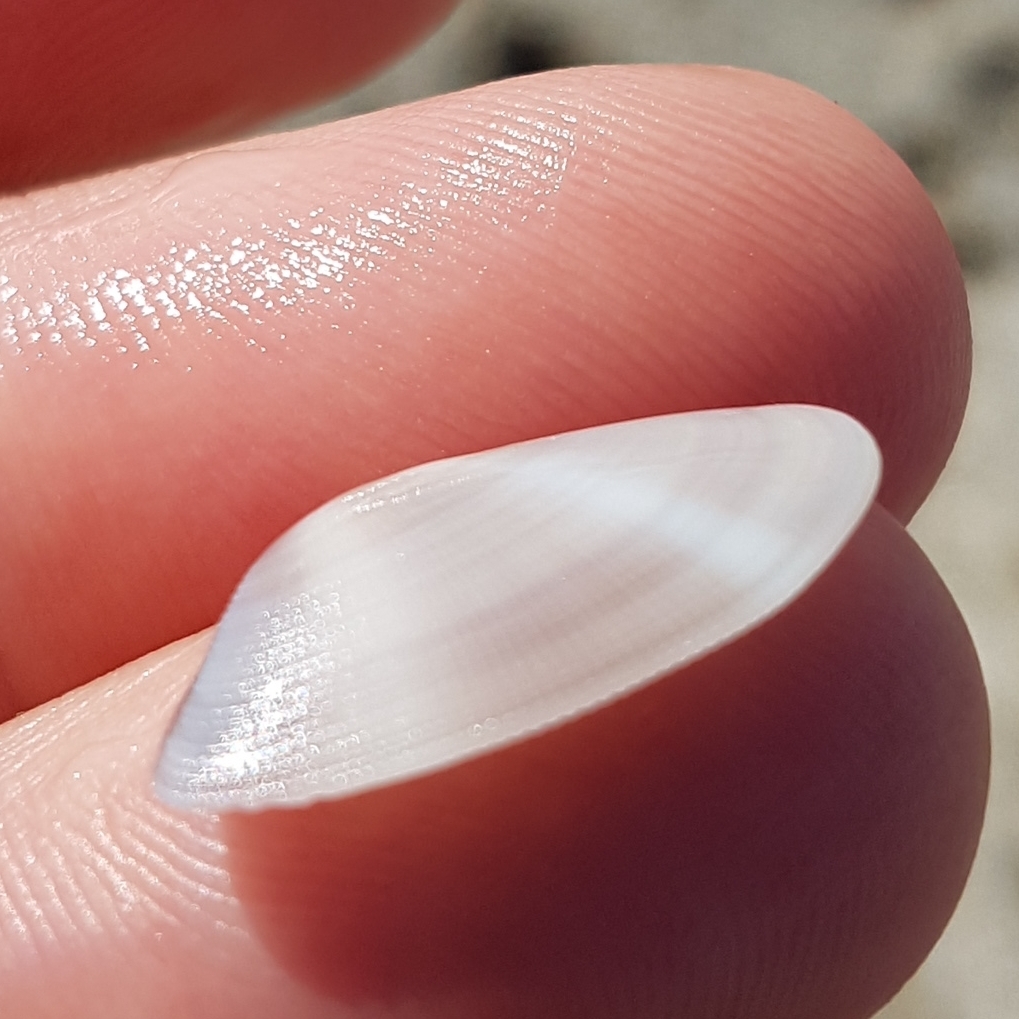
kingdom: Animalia
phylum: Mollusca
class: Bivalvia
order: Cardiida
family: Donacidae
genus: Donax
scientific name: Donax semistriatus
